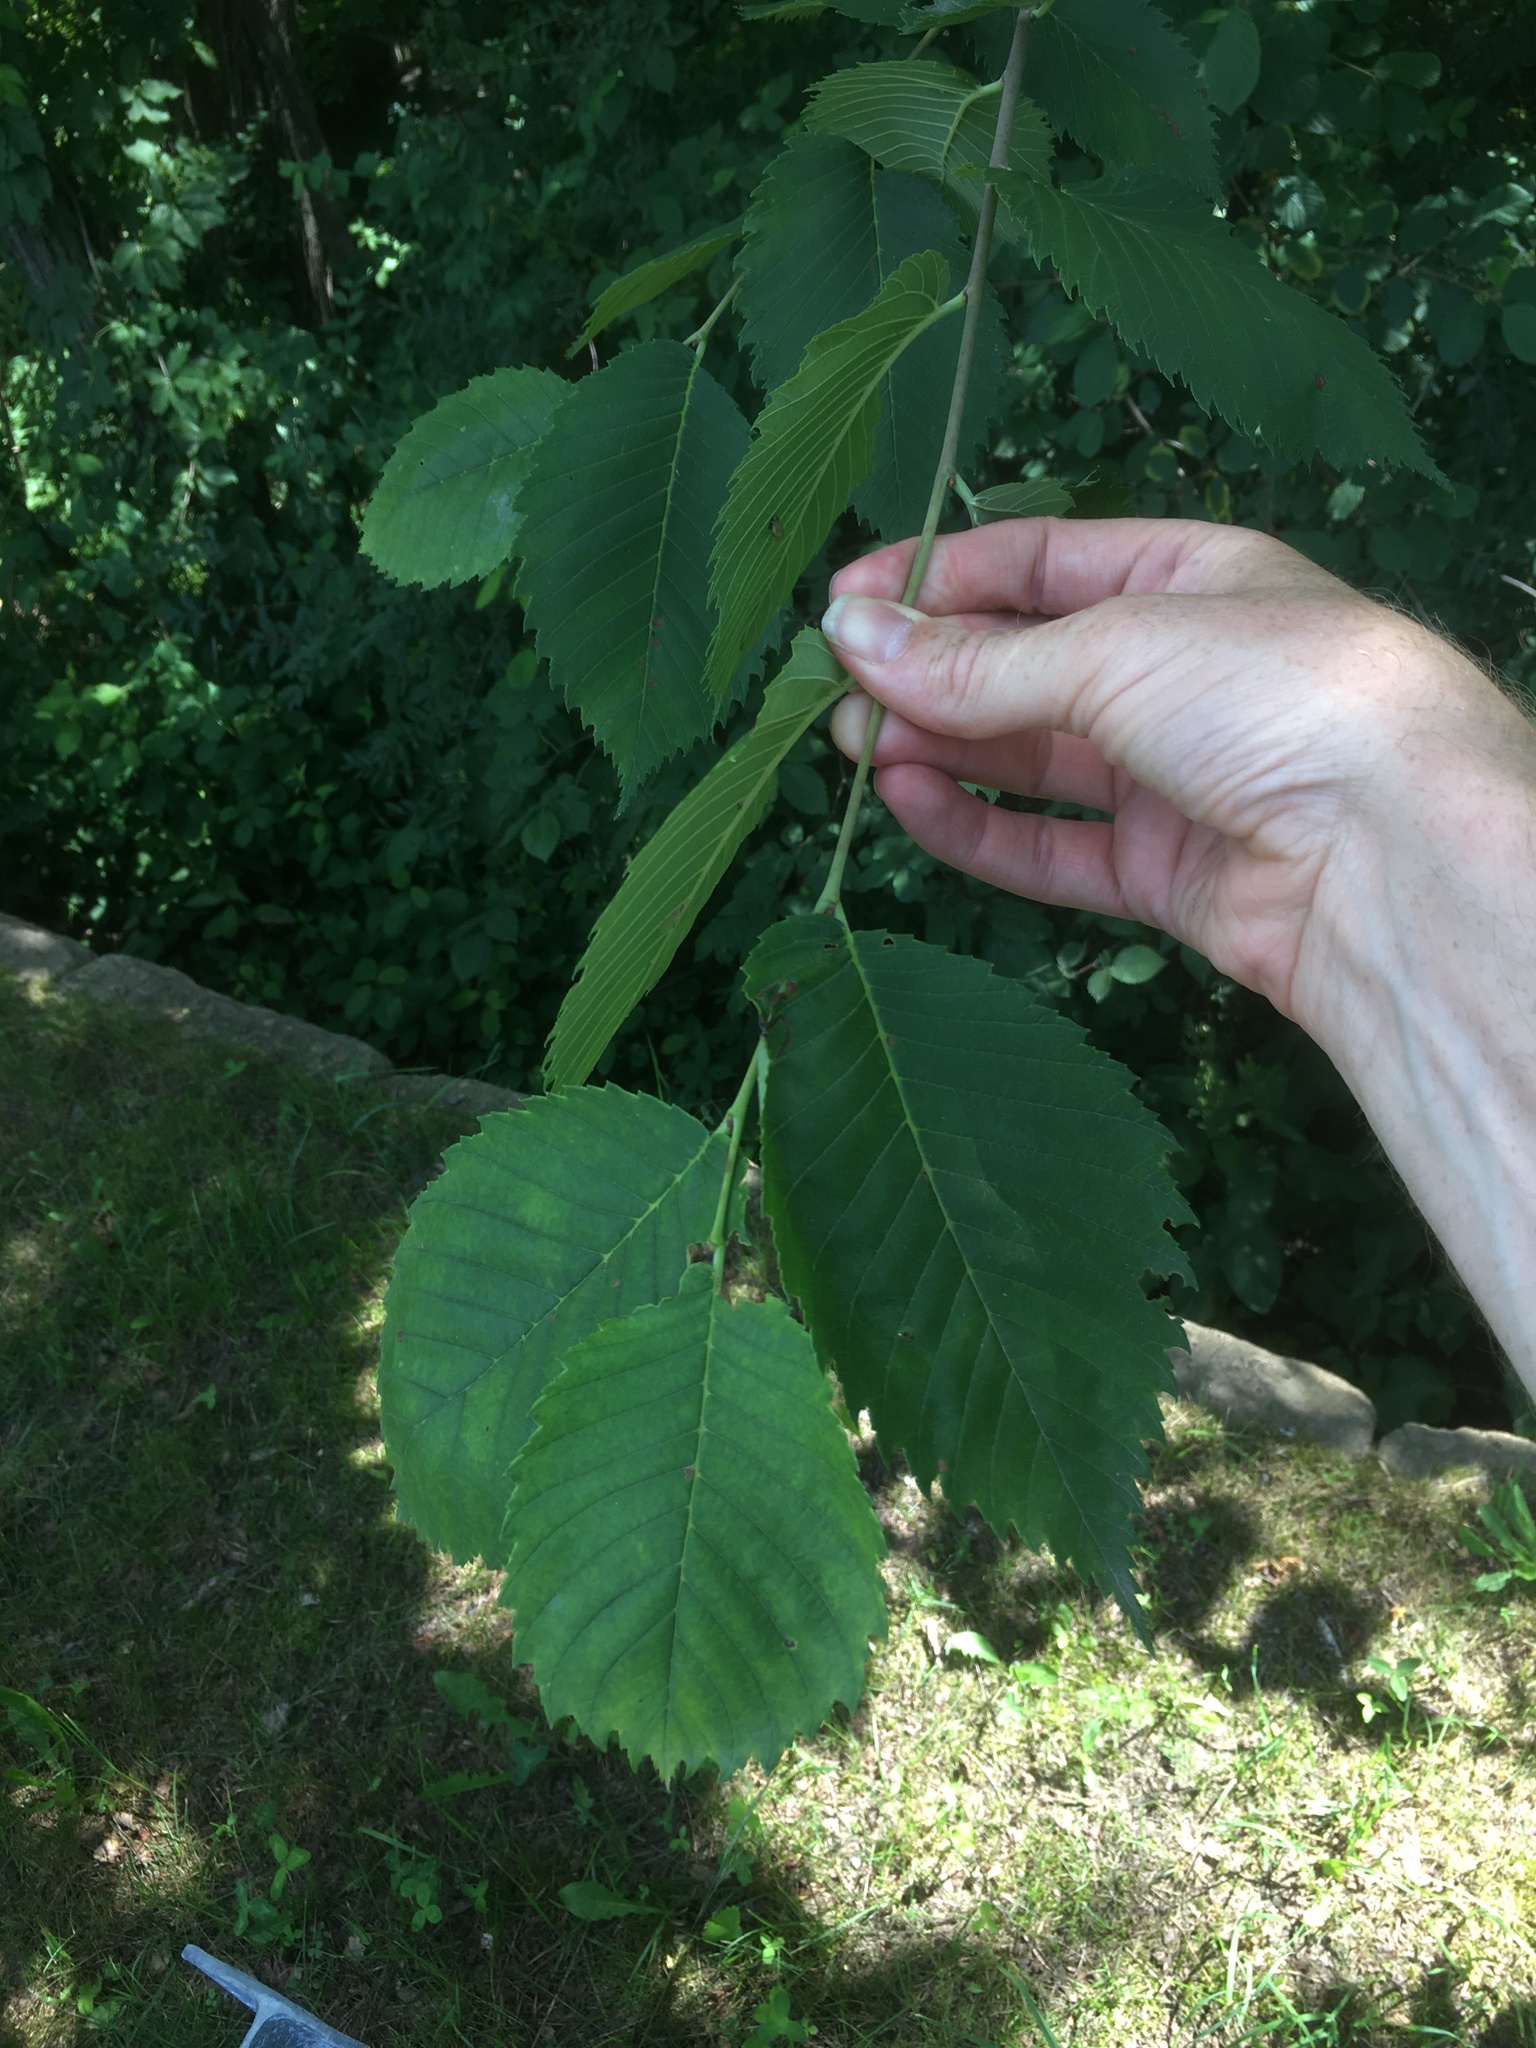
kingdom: Plantae
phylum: Tracheophyta
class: Magnoliopsida
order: Rosales
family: Ulmaceae
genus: Ulmus
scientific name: Ulmus americana
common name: American elm
